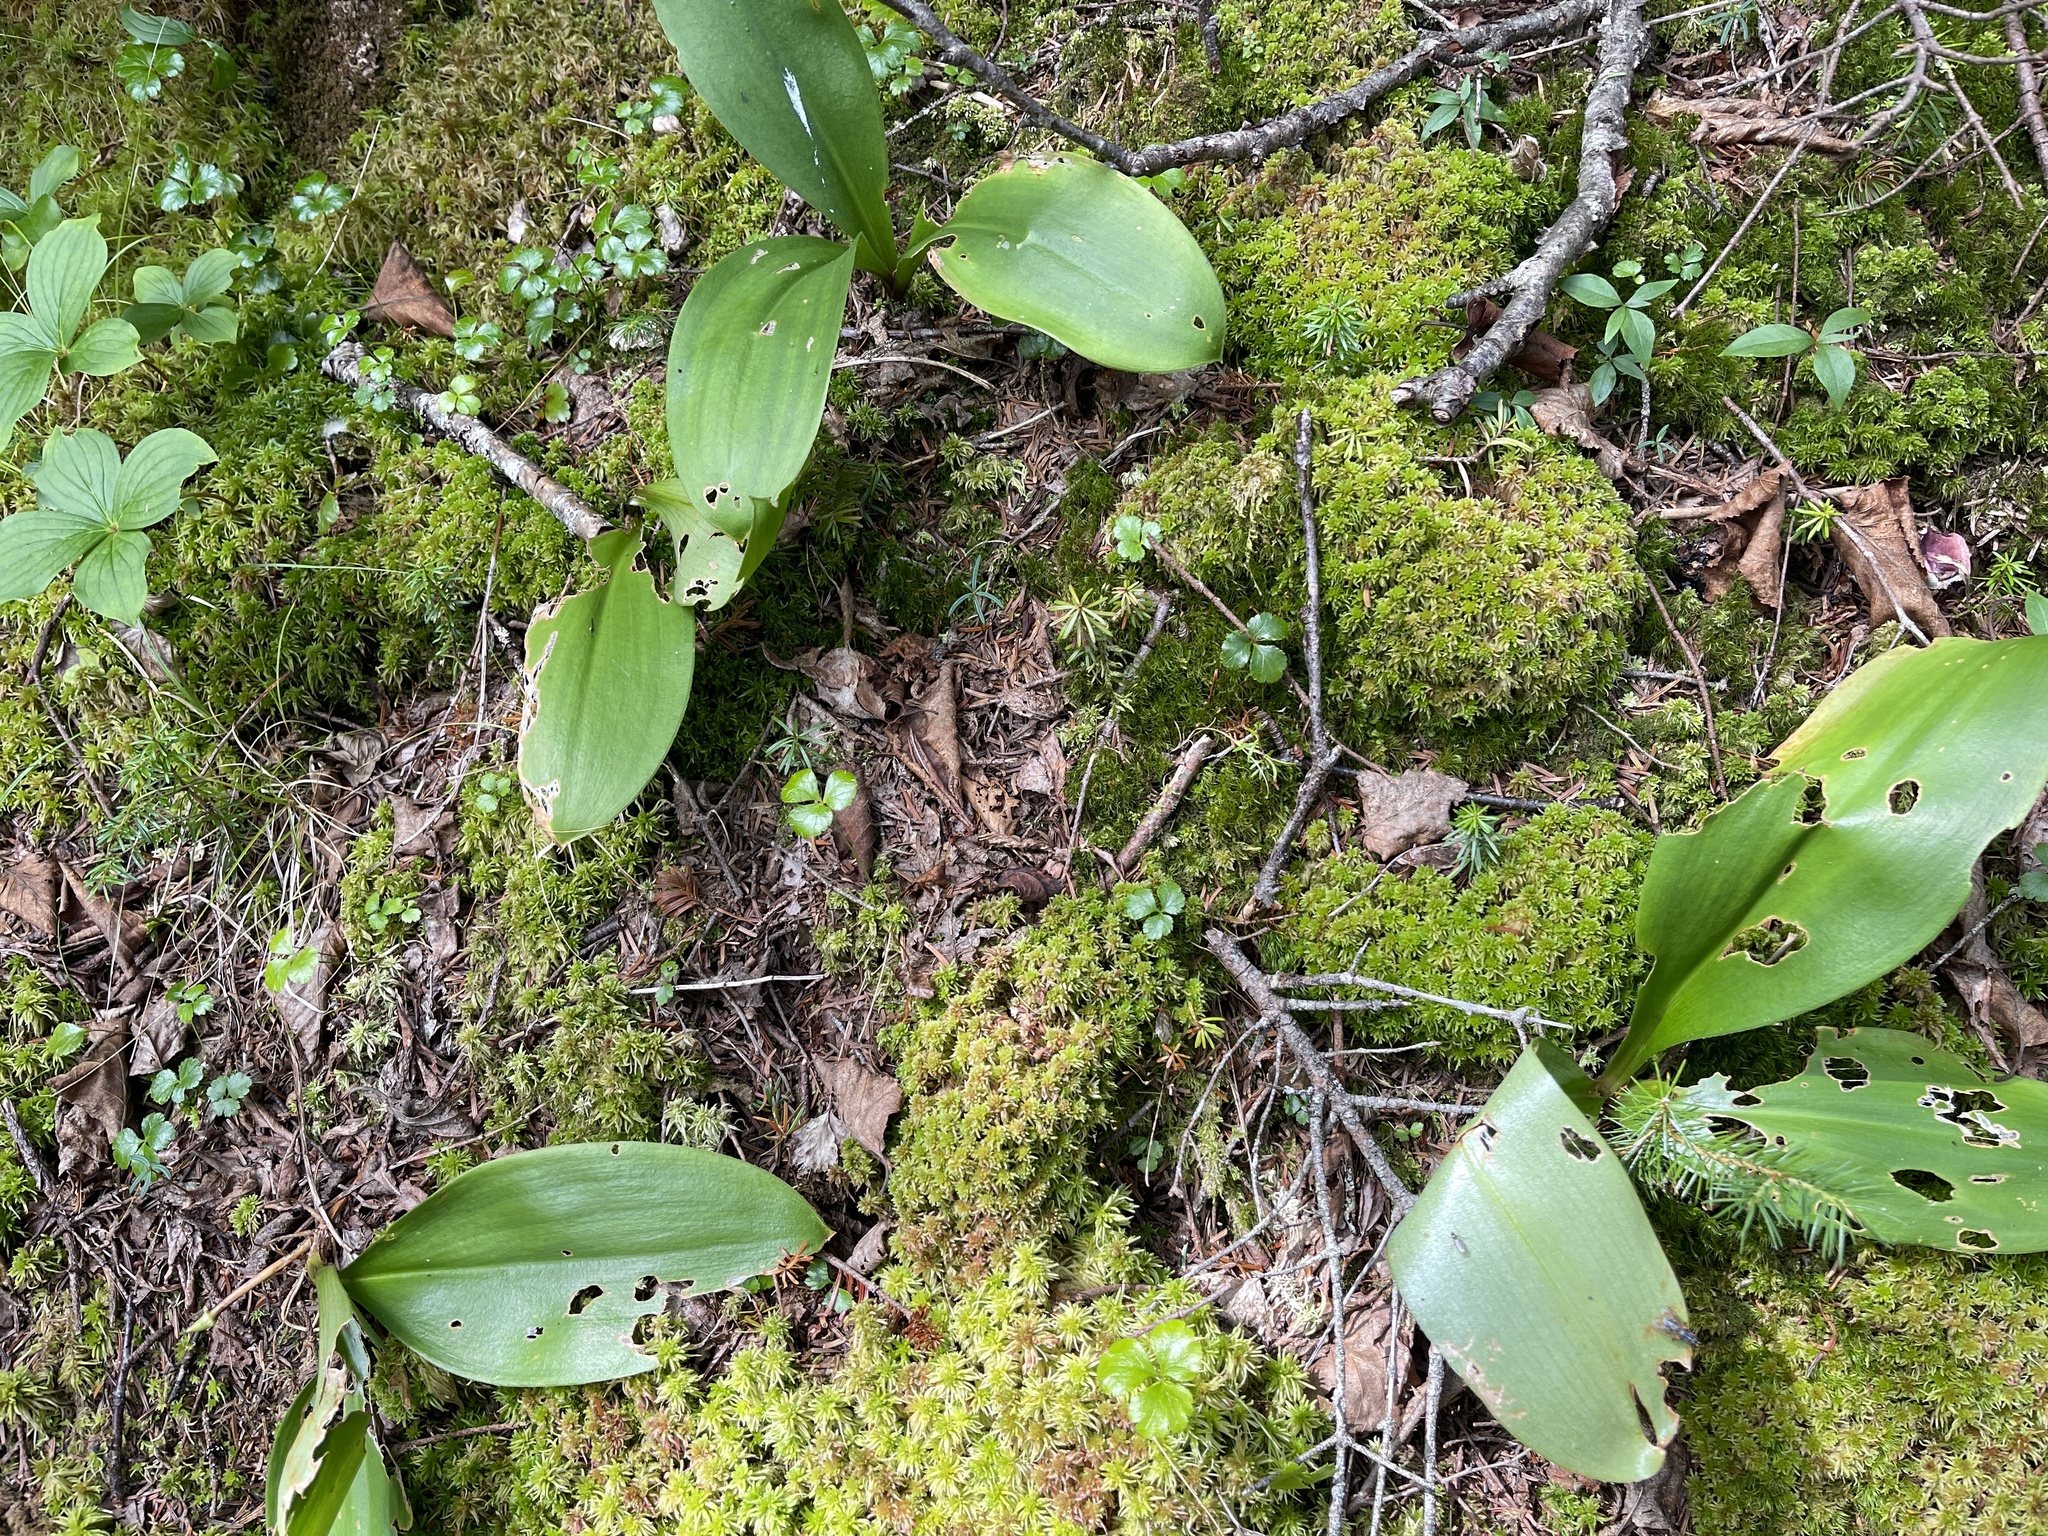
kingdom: Plantae
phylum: Tracheophyta
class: Liliopsida
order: Liliales
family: Liliaceae
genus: Clintonia
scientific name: Clintonia borealis
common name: Yellow clintonia
